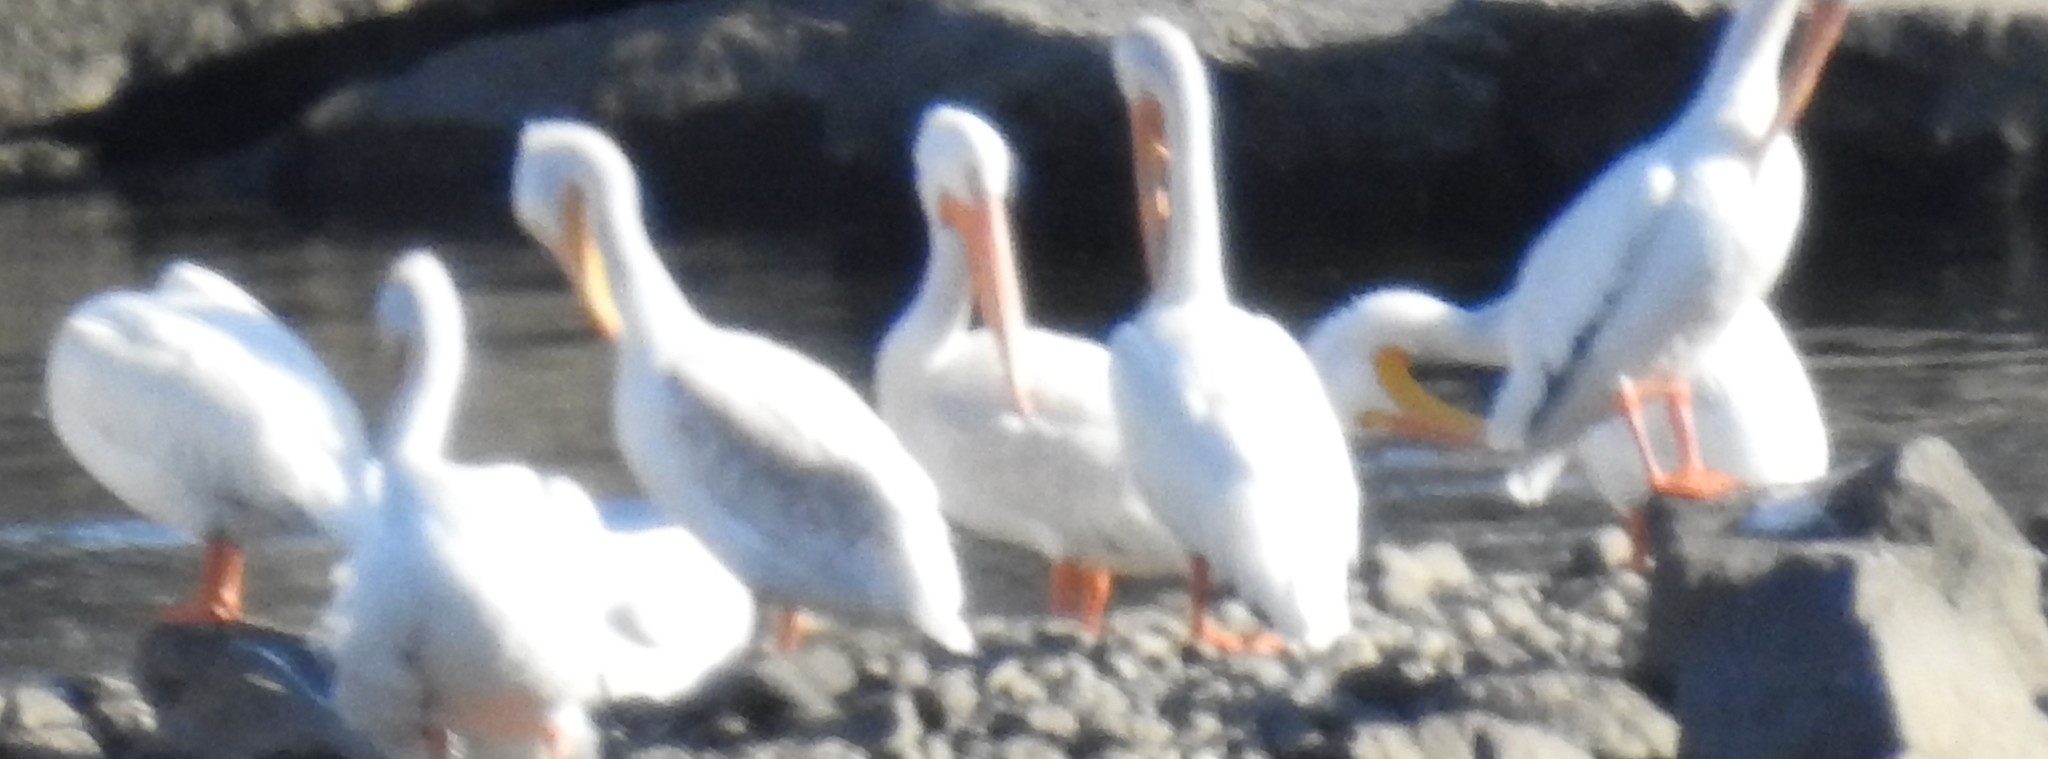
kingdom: Animalia
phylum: Chordata
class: Aves
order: Pelecaniformes
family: Pelecanidae
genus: Pelecanus
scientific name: Pelecanus erythrorhynchos
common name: American white pelican
